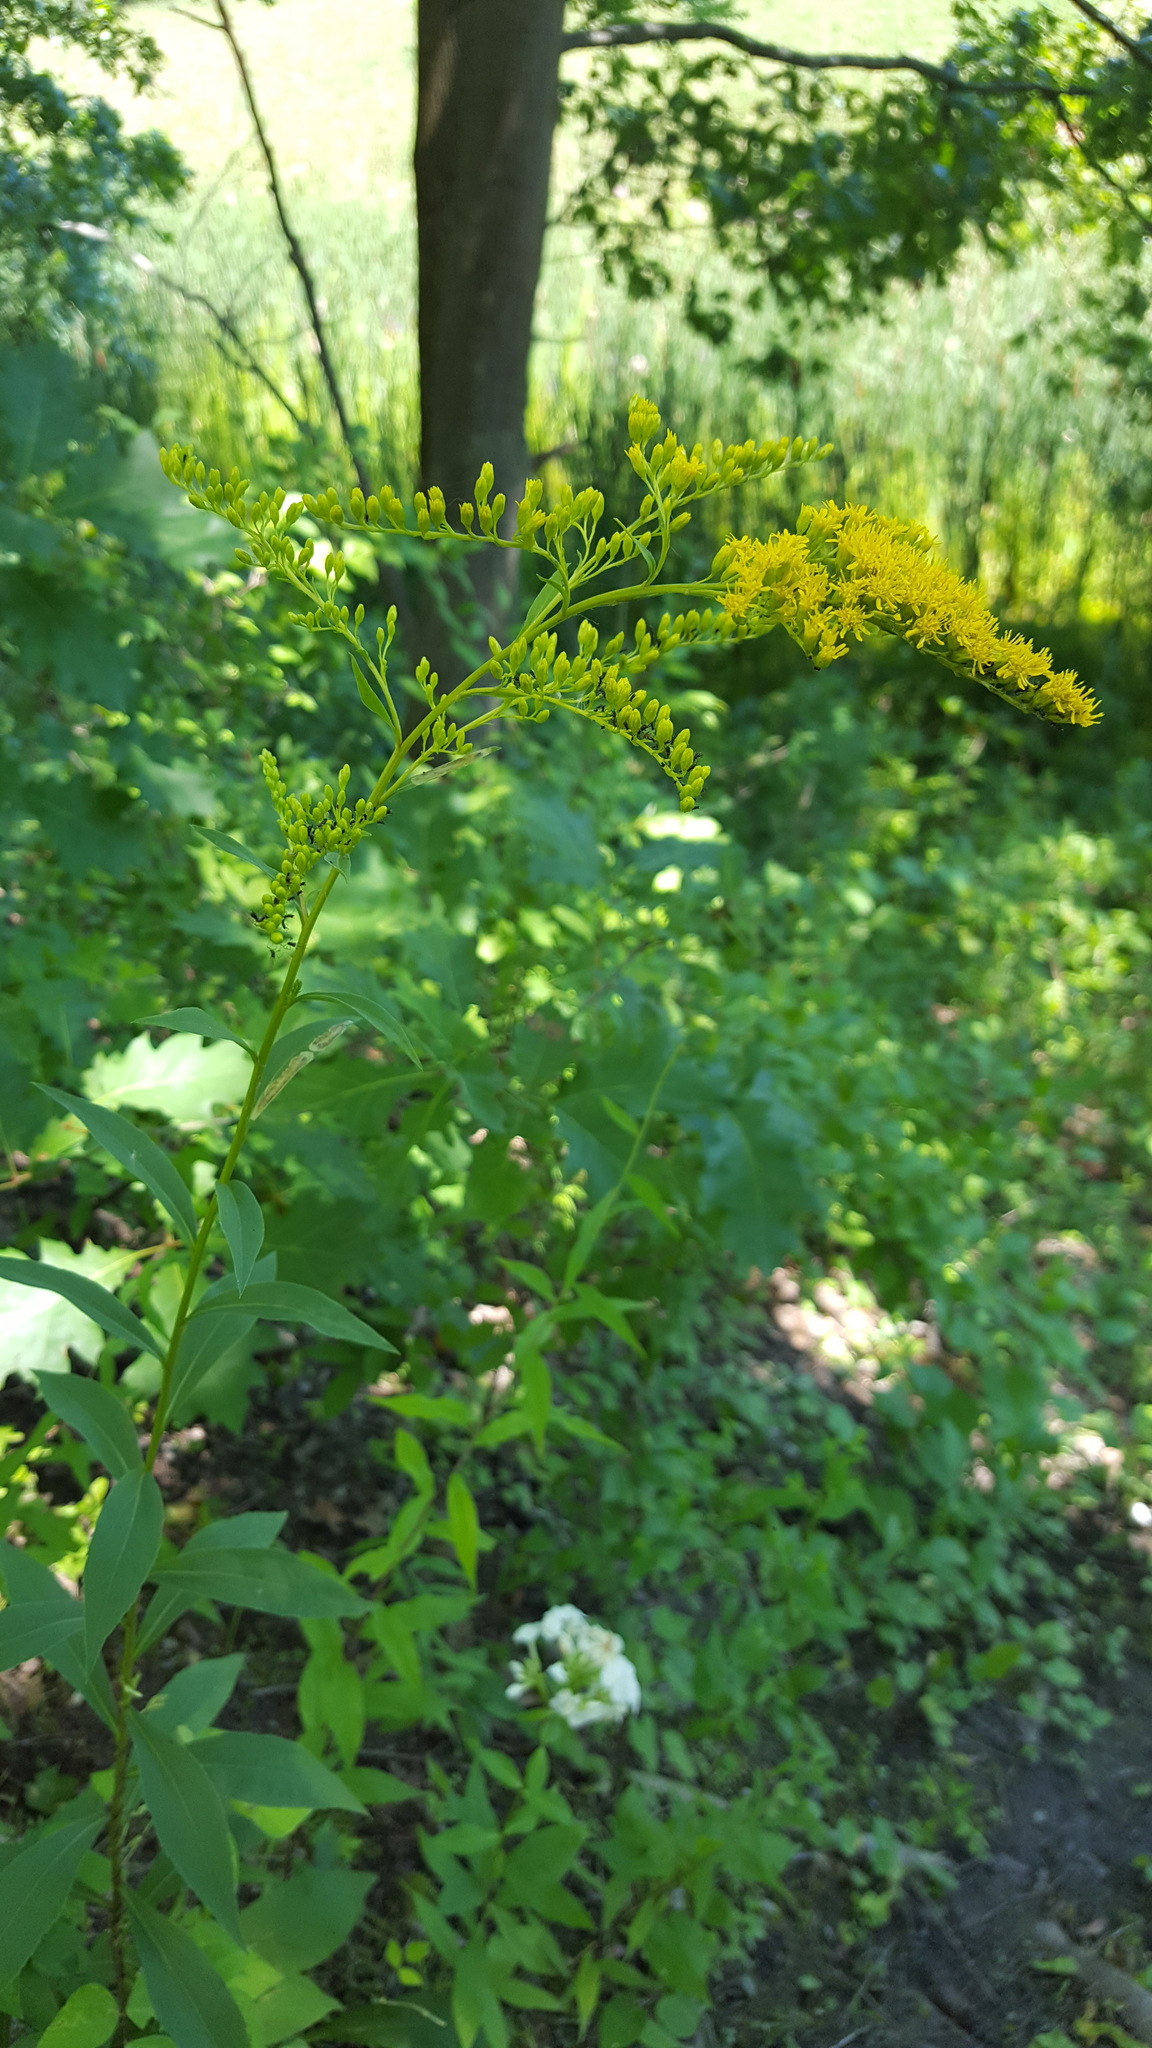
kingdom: Plantae
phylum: Tracheophyta
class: Magnoliopsida
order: Asterales
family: Asteraceae
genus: Solidago
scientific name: Solidago juncea
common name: Early goldenrod
